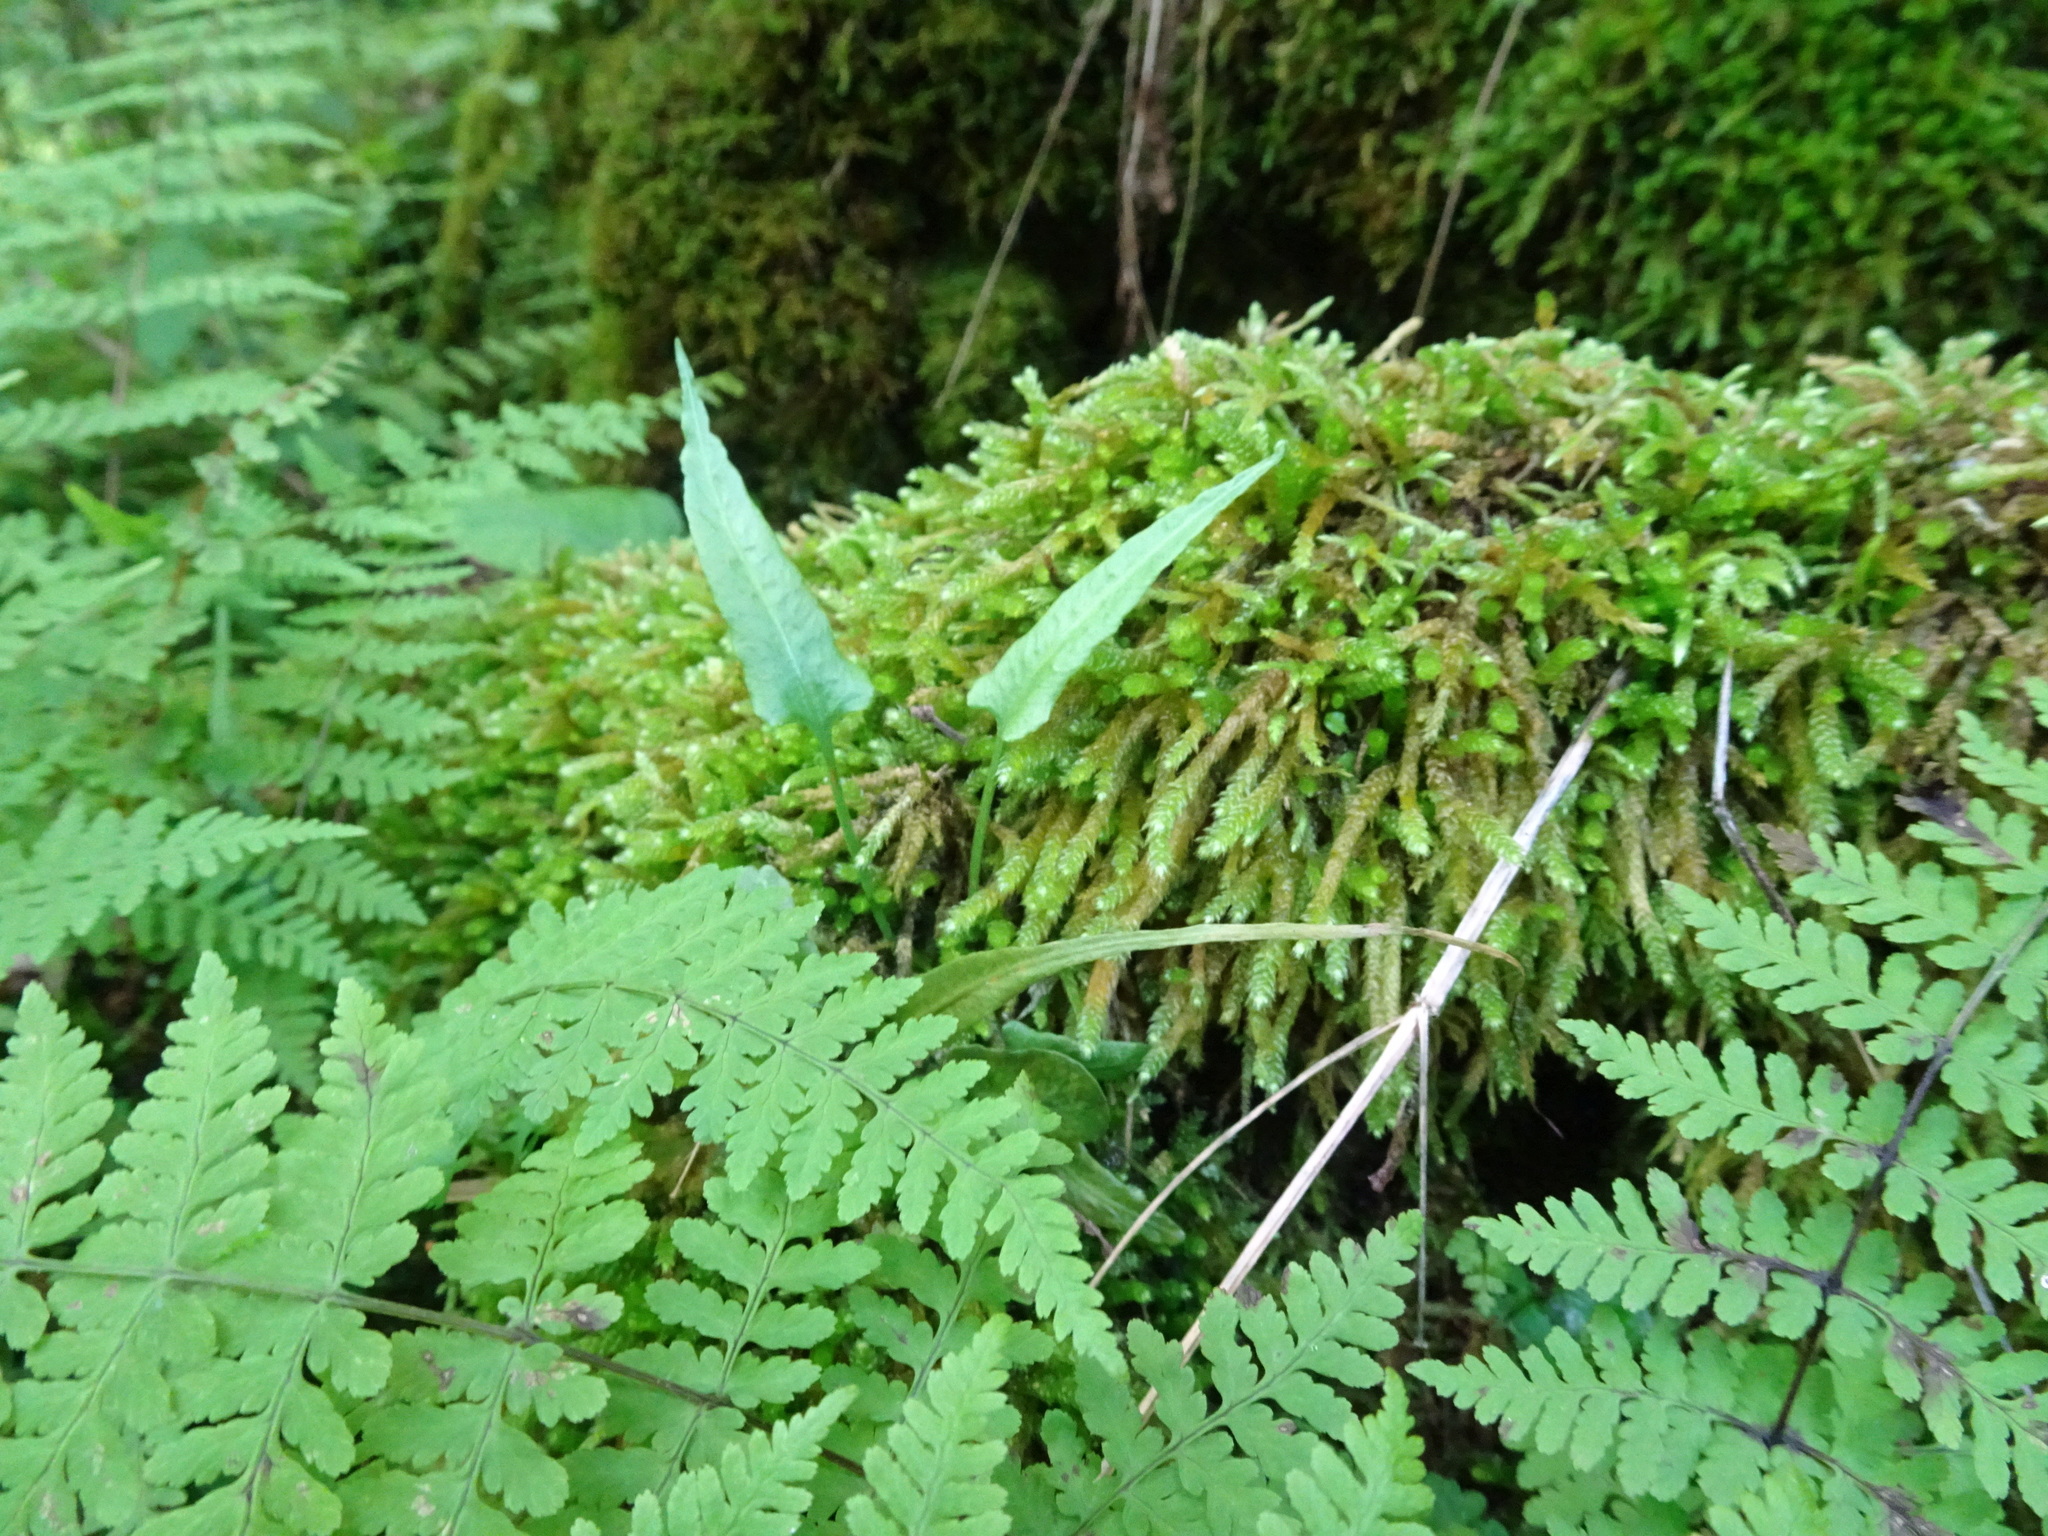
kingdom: Plantae
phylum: Tracheophyta
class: Polypodiopsida
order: Polypodiales
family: Aspleniaceae
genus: Asplenium
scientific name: Asplenium rhizophyllum
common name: Walking fern
